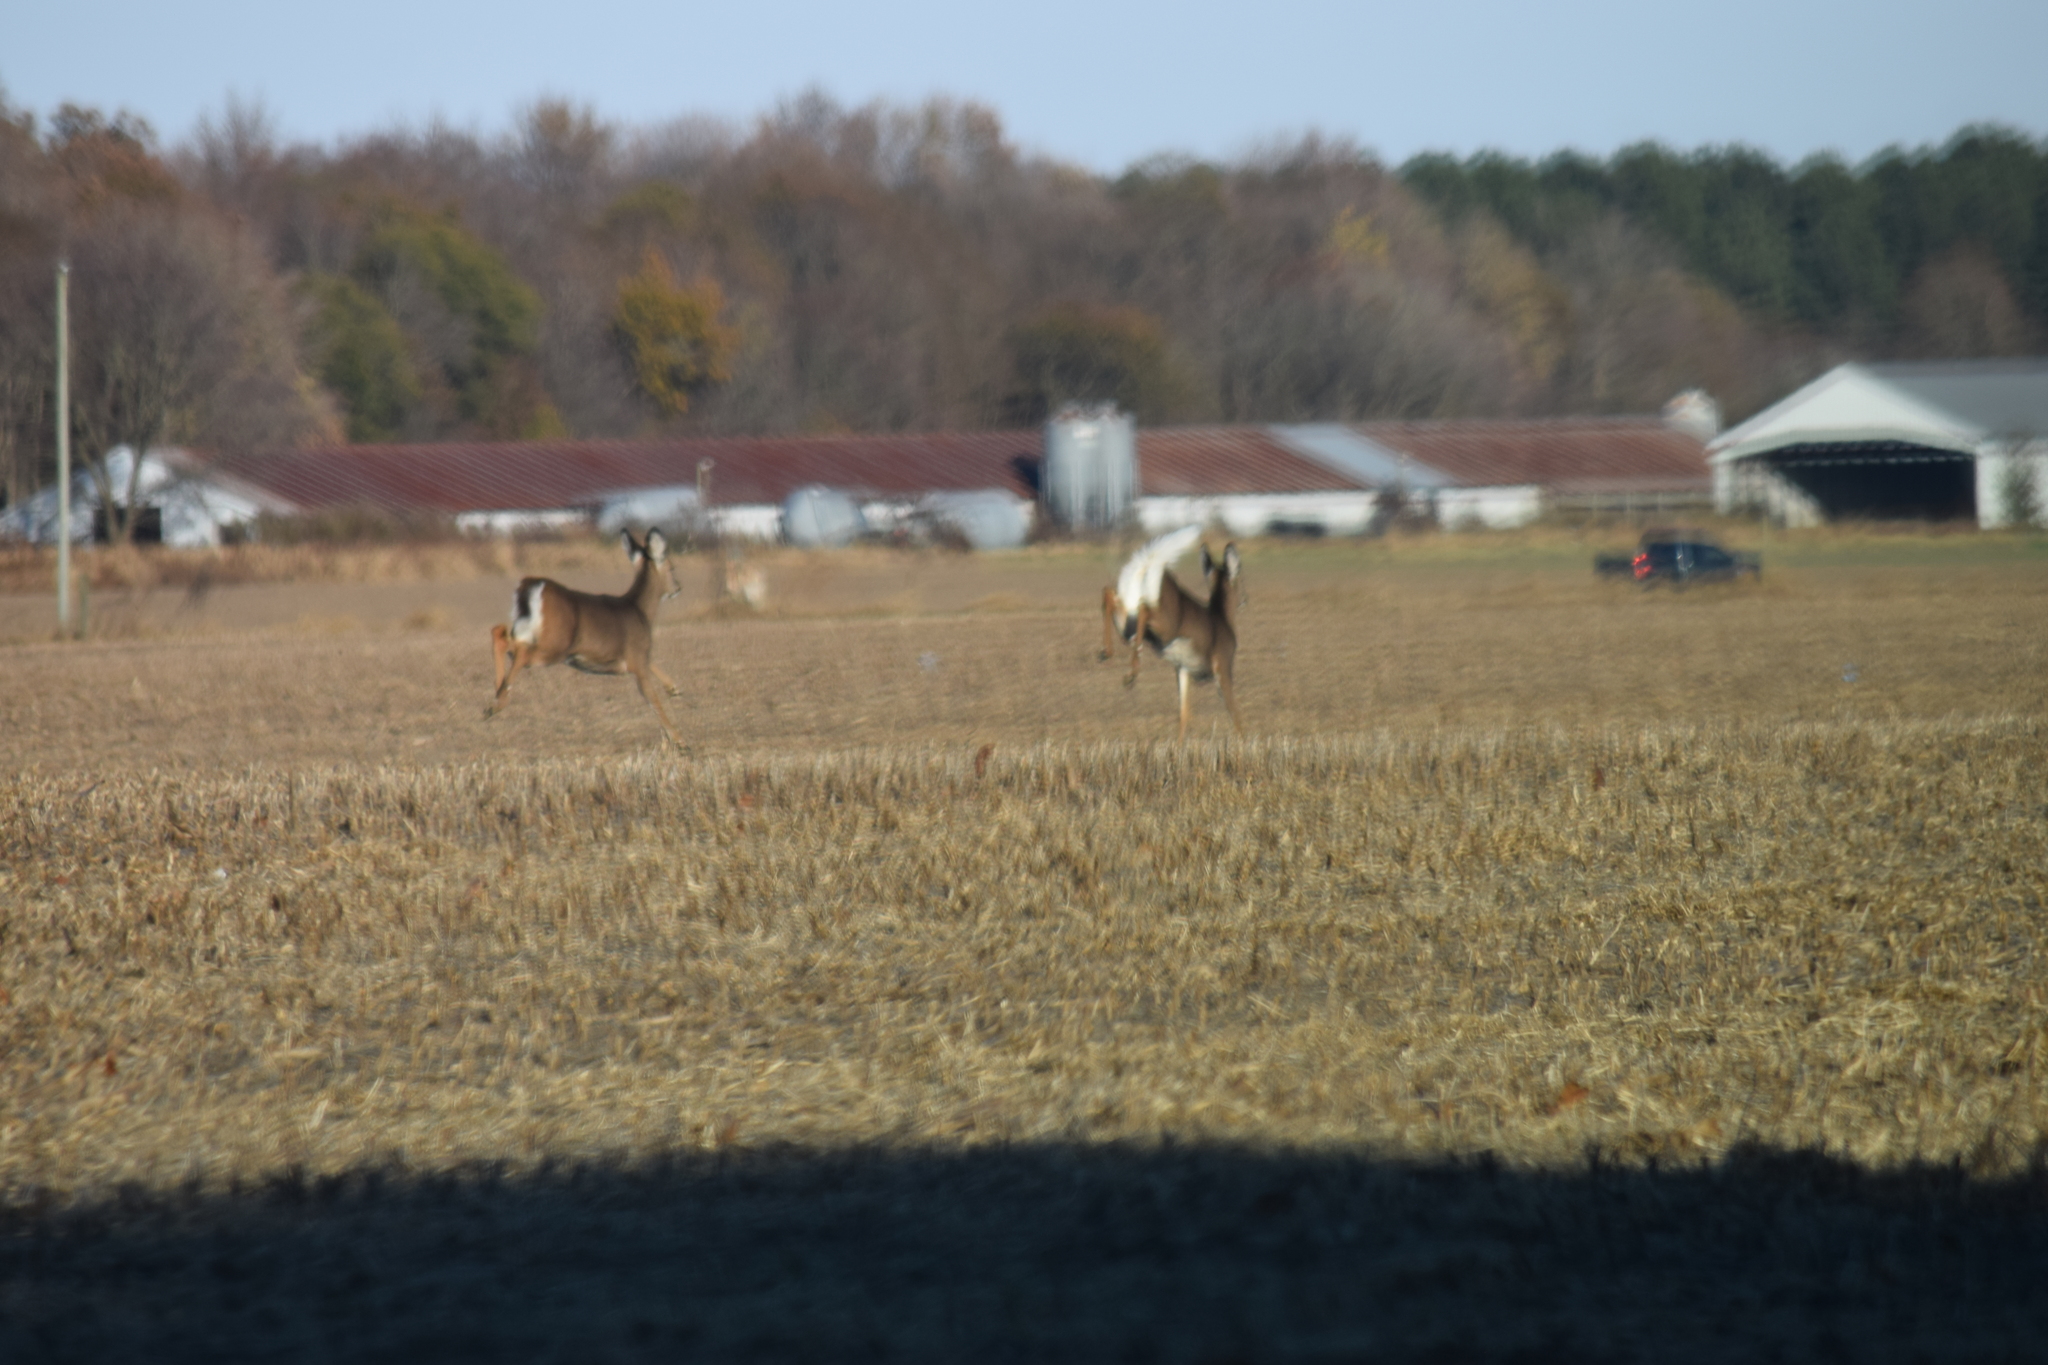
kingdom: Animalia
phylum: Chordata
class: Mammalia
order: Artiodactyla
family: Cervidae
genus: Odocoileus
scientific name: Odocoileus virginianus
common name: White-tailed deer
